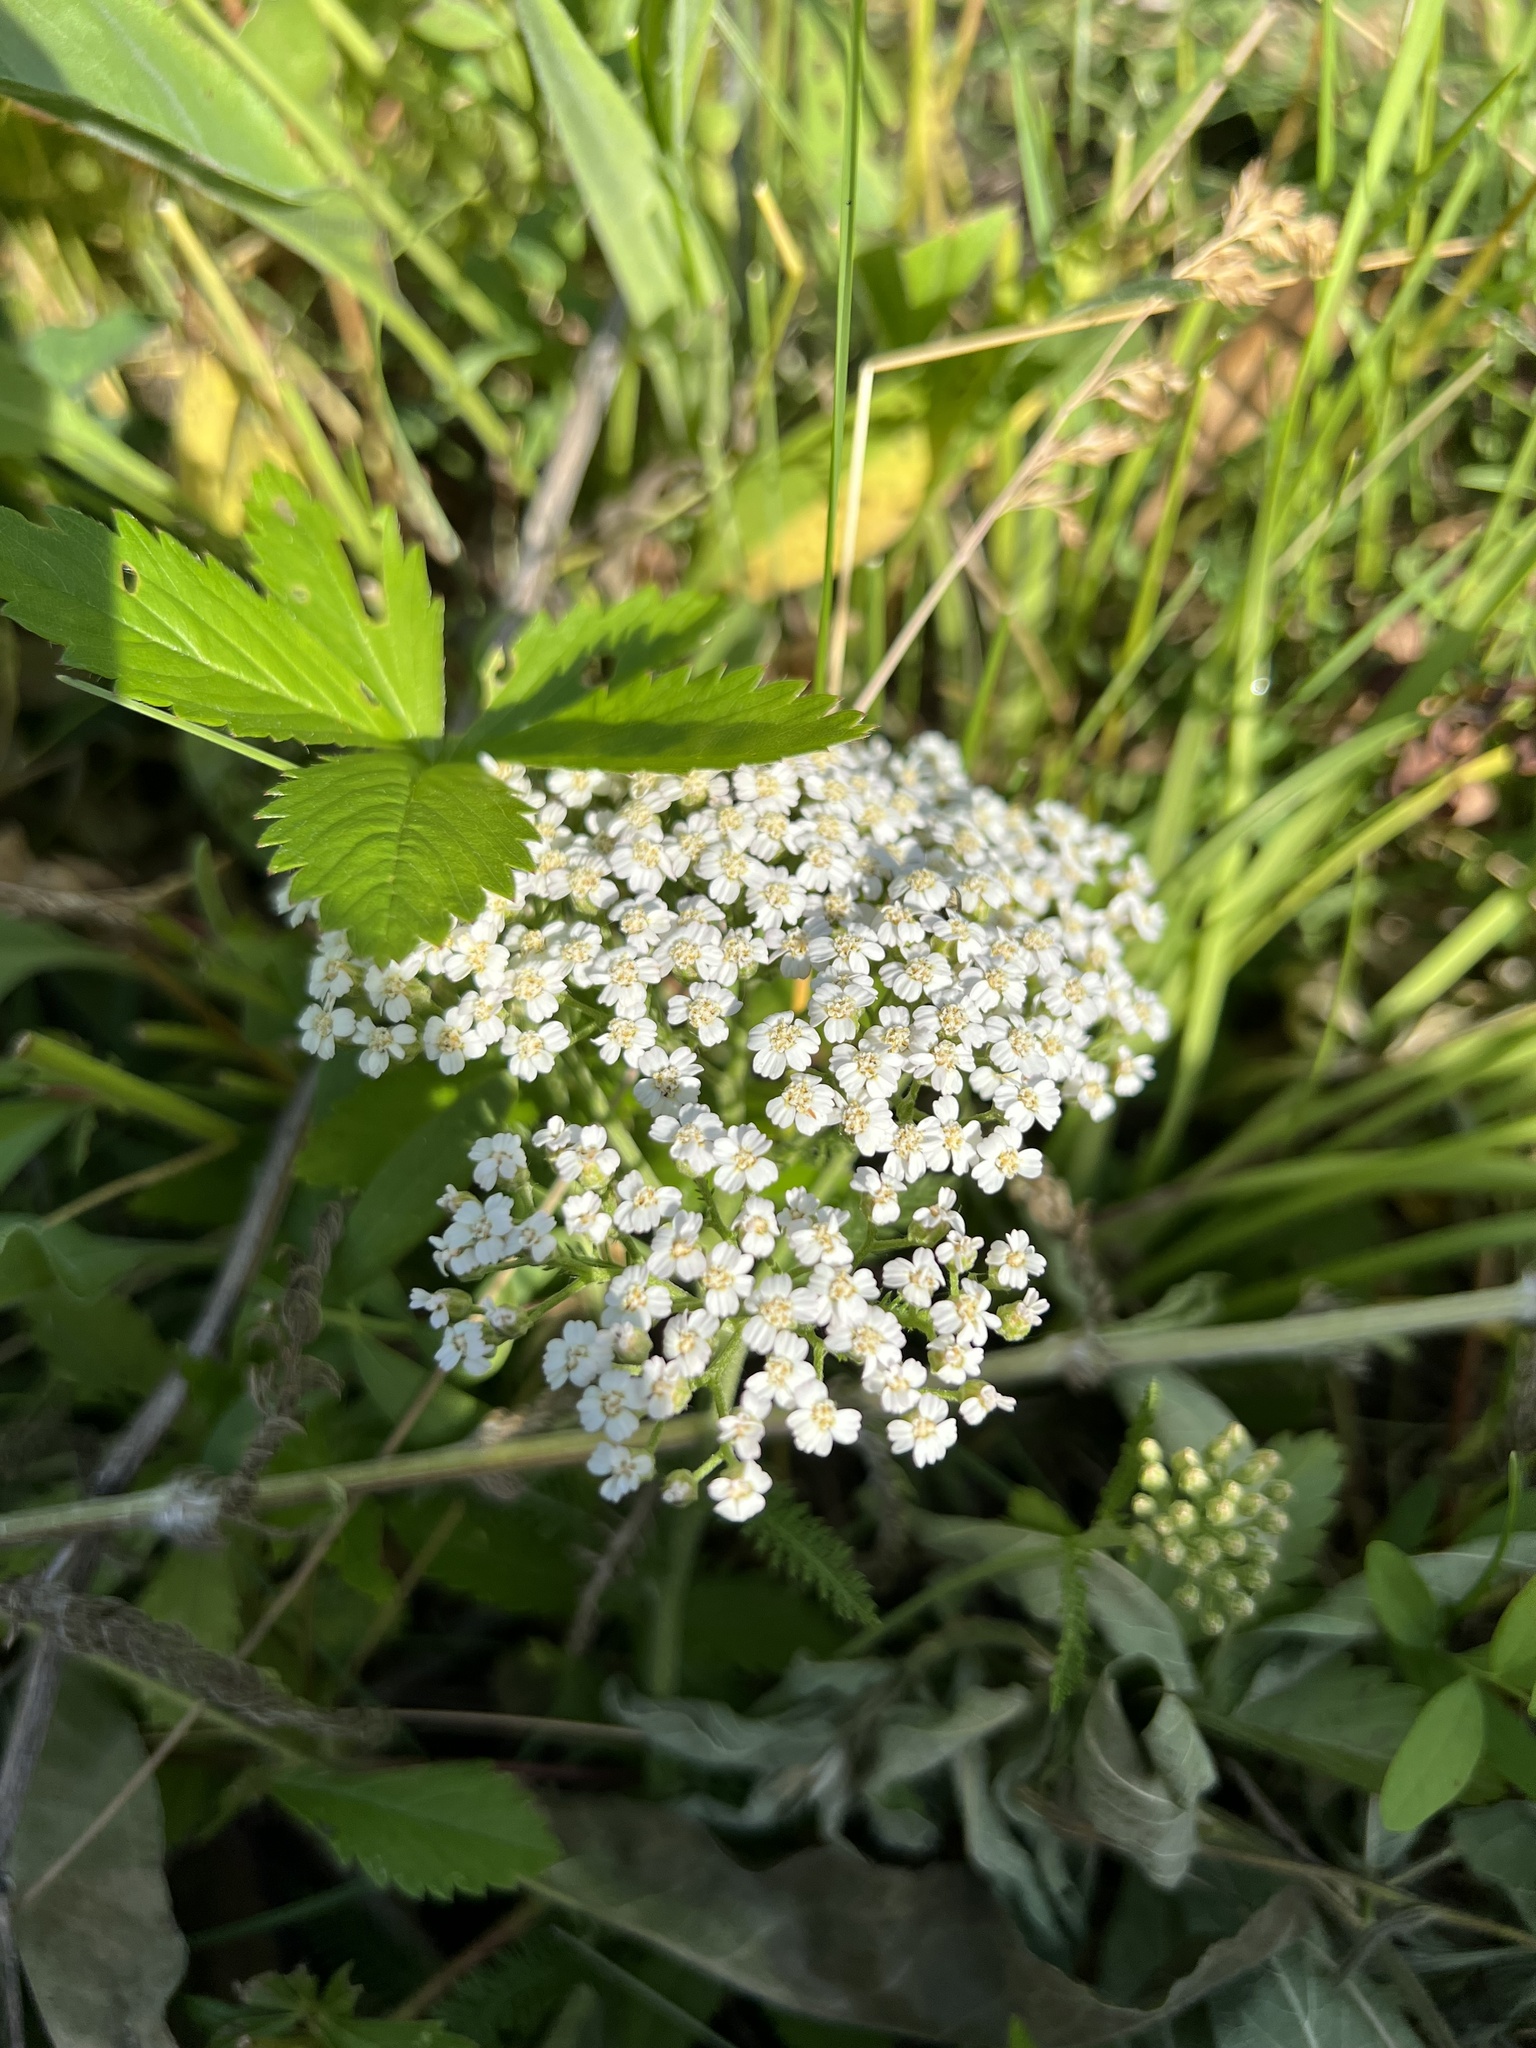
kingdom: Plantae
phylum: Tracheophyta
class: Magnoliopsida
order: Asterales
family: Asteraceae
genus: Achillea
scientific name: Achillea millefolium
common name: Yarrow
